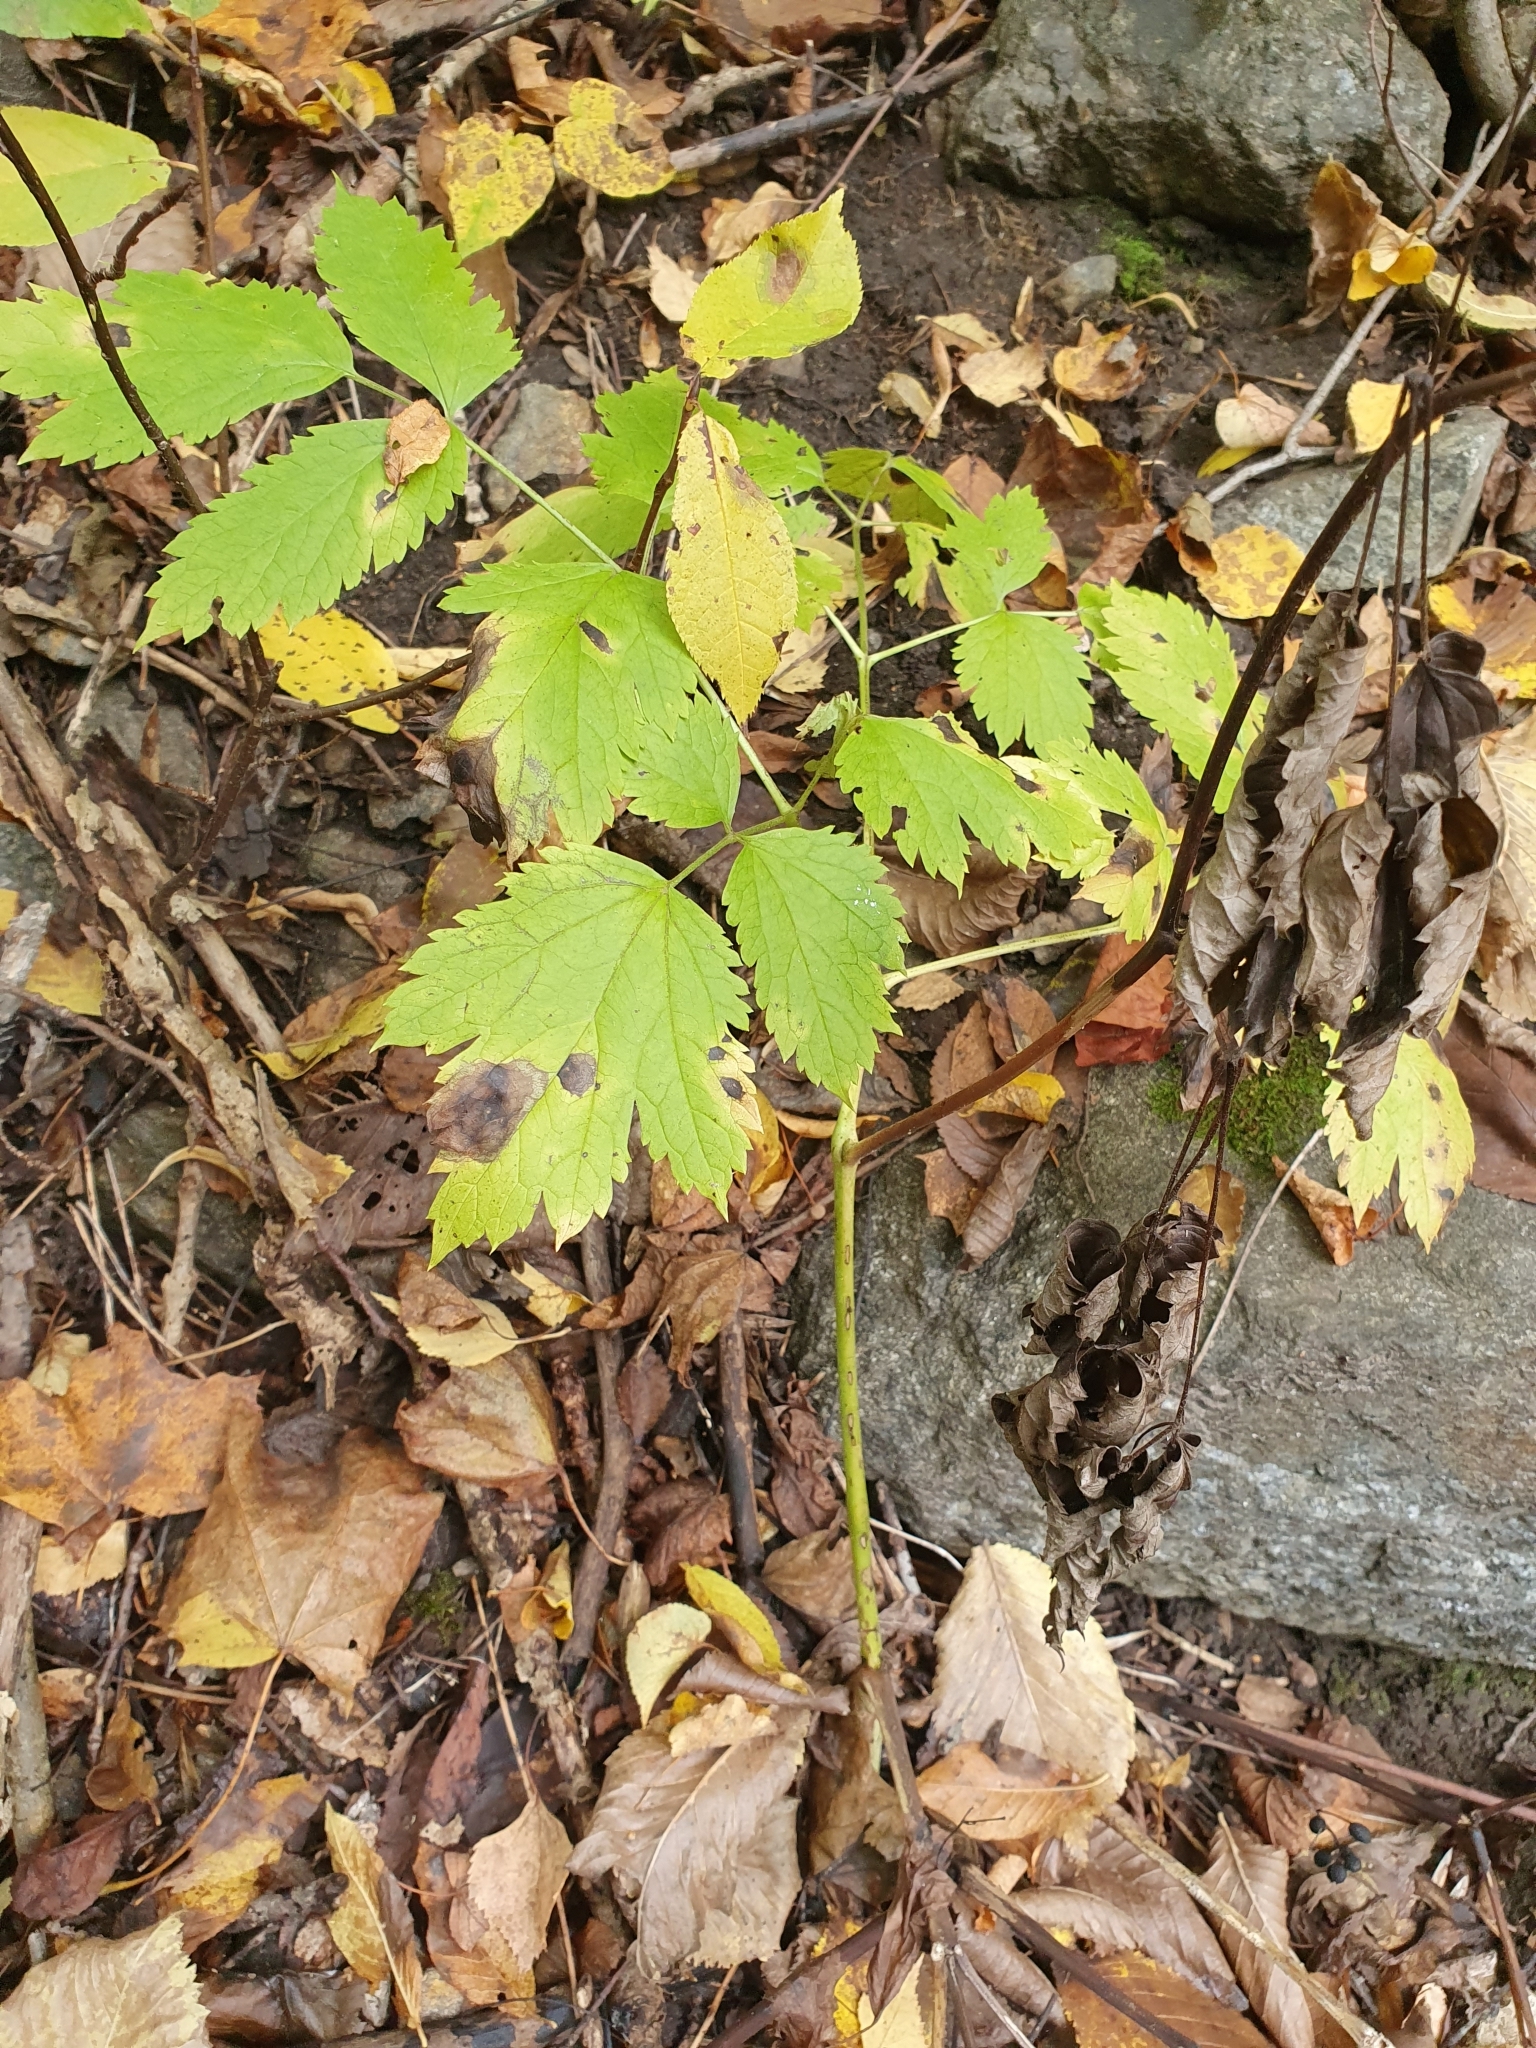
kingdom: Plantae
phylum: Tracheophyta
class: Magnoliopsida
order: Ranunculales
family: Ranunculaceae
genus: Actaea
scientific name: Actaea spicata
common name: Baneberry
